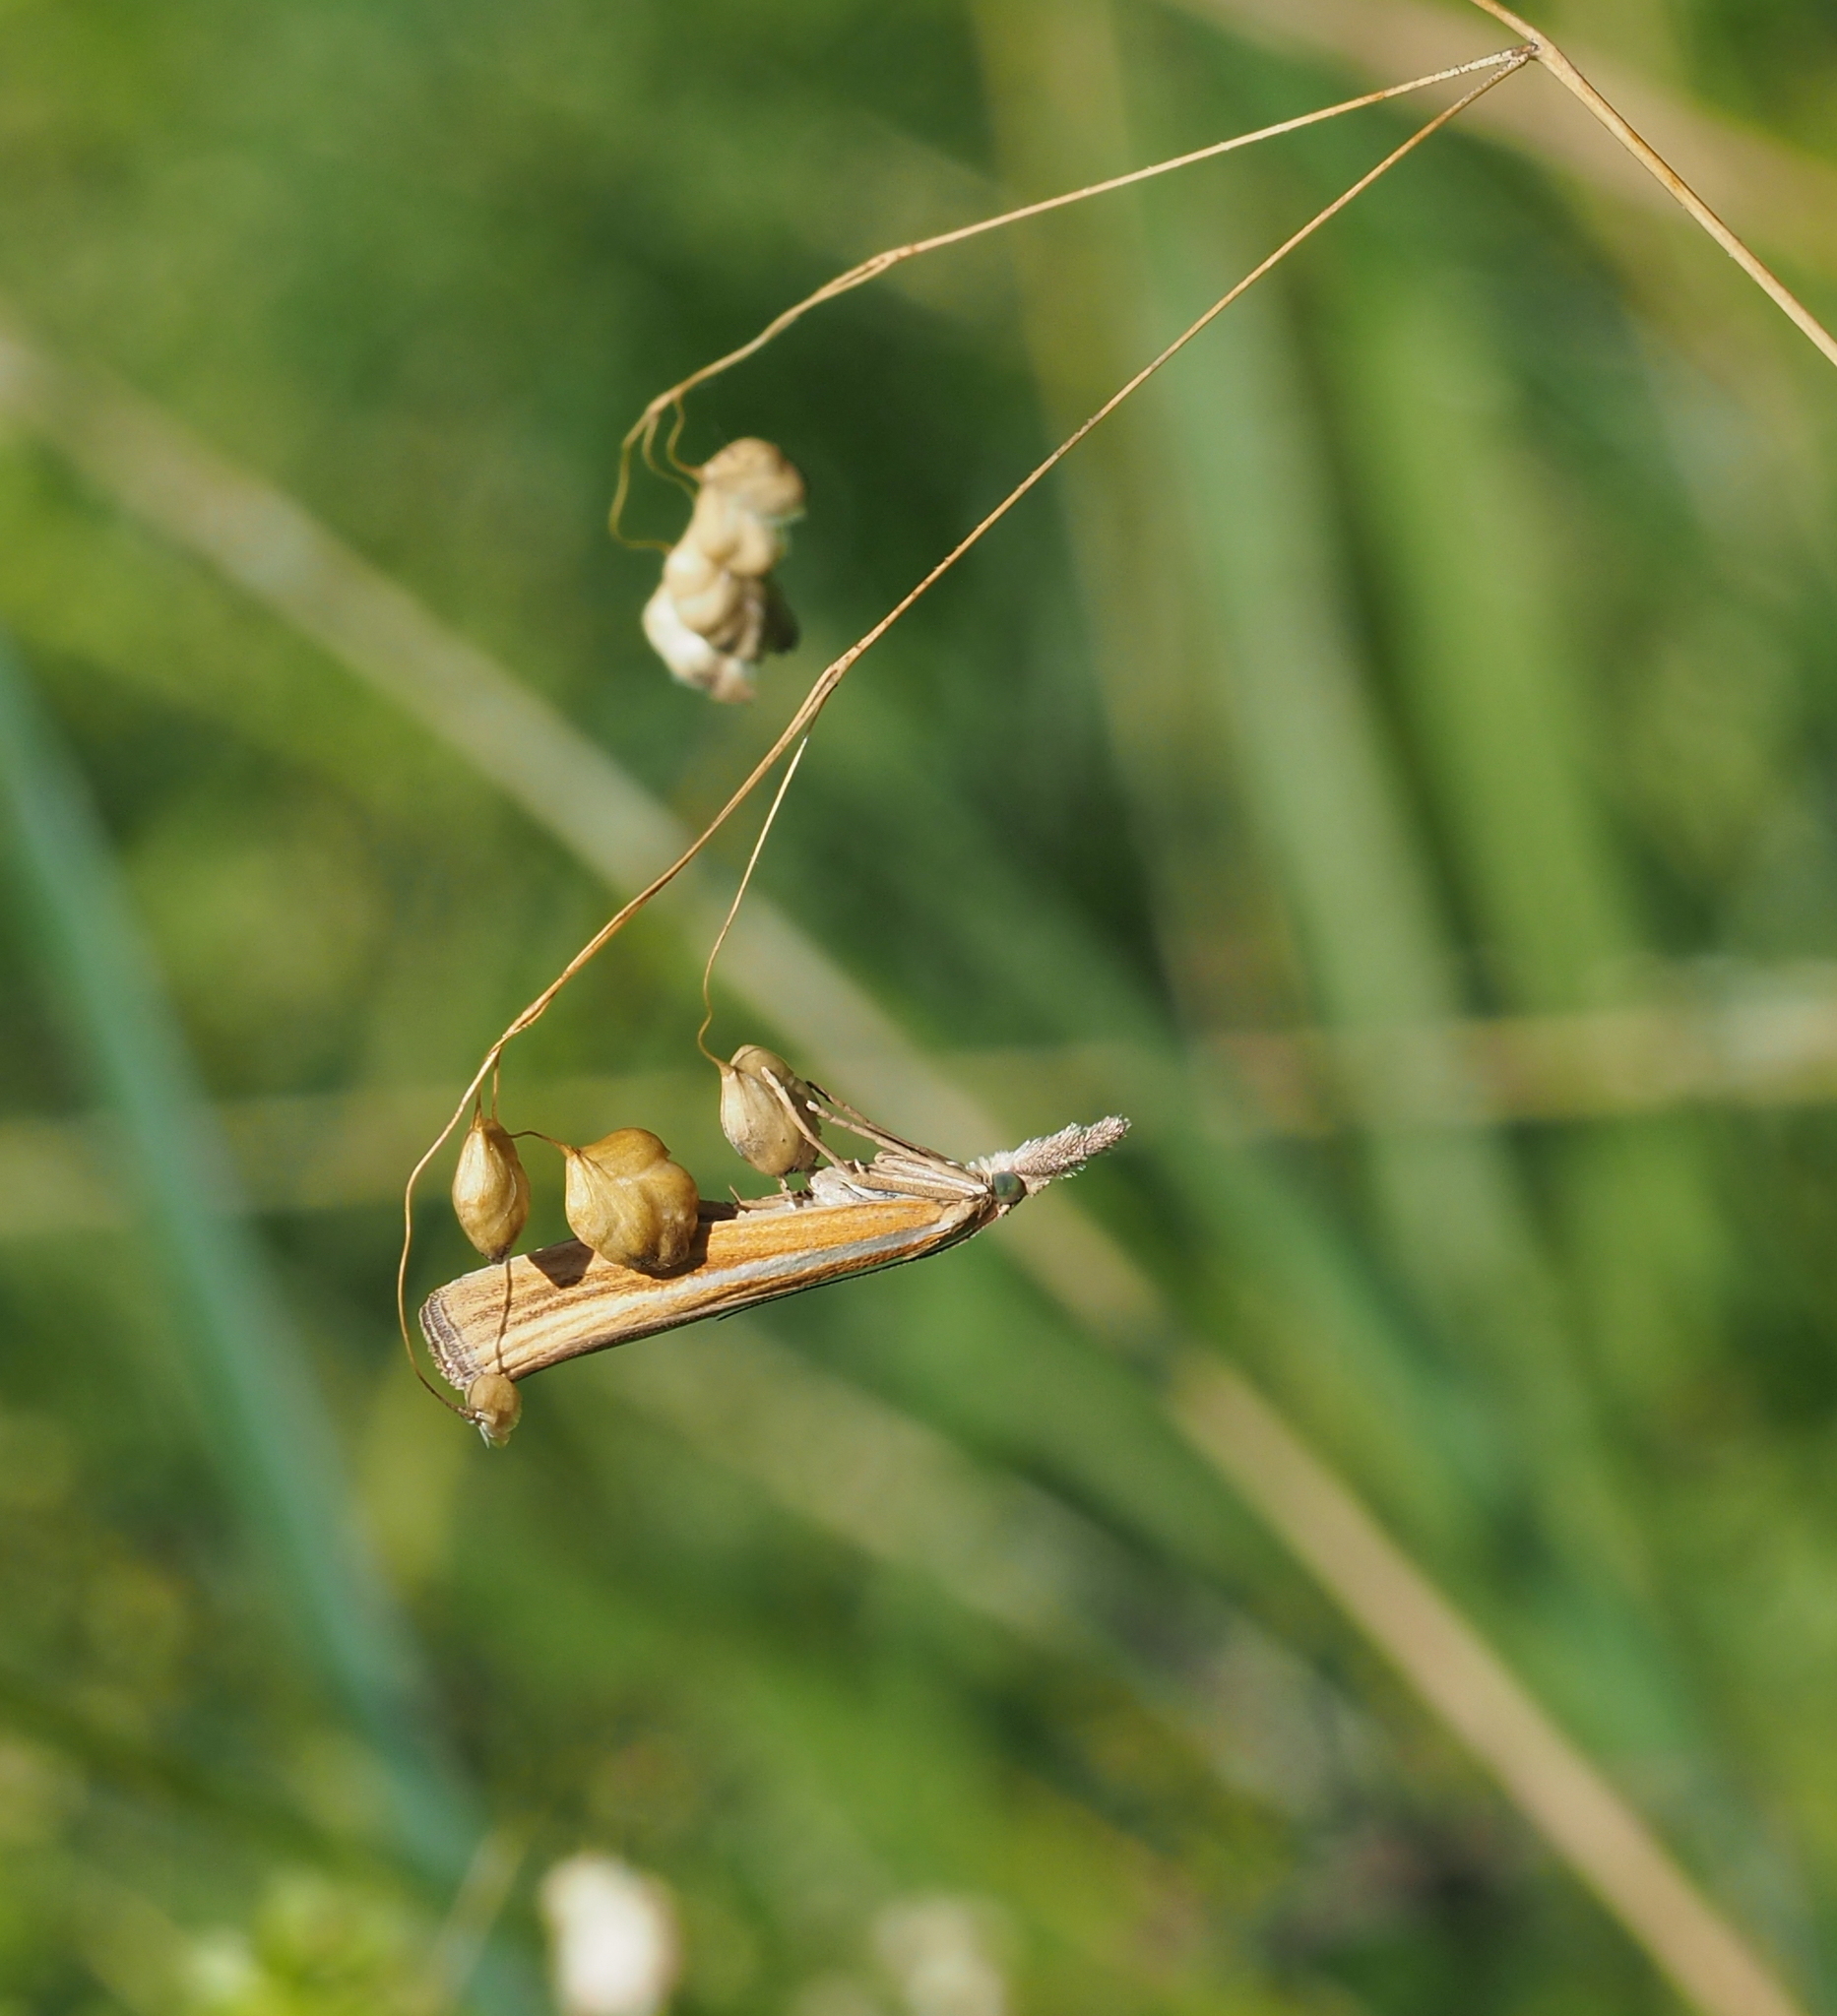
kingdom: Animalia
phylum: Arthropoda
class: Insecta
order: Lepidoptera
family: Crambidae
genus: Agriphila
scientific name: Agriphila tristellus
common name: Common grass-veneer
